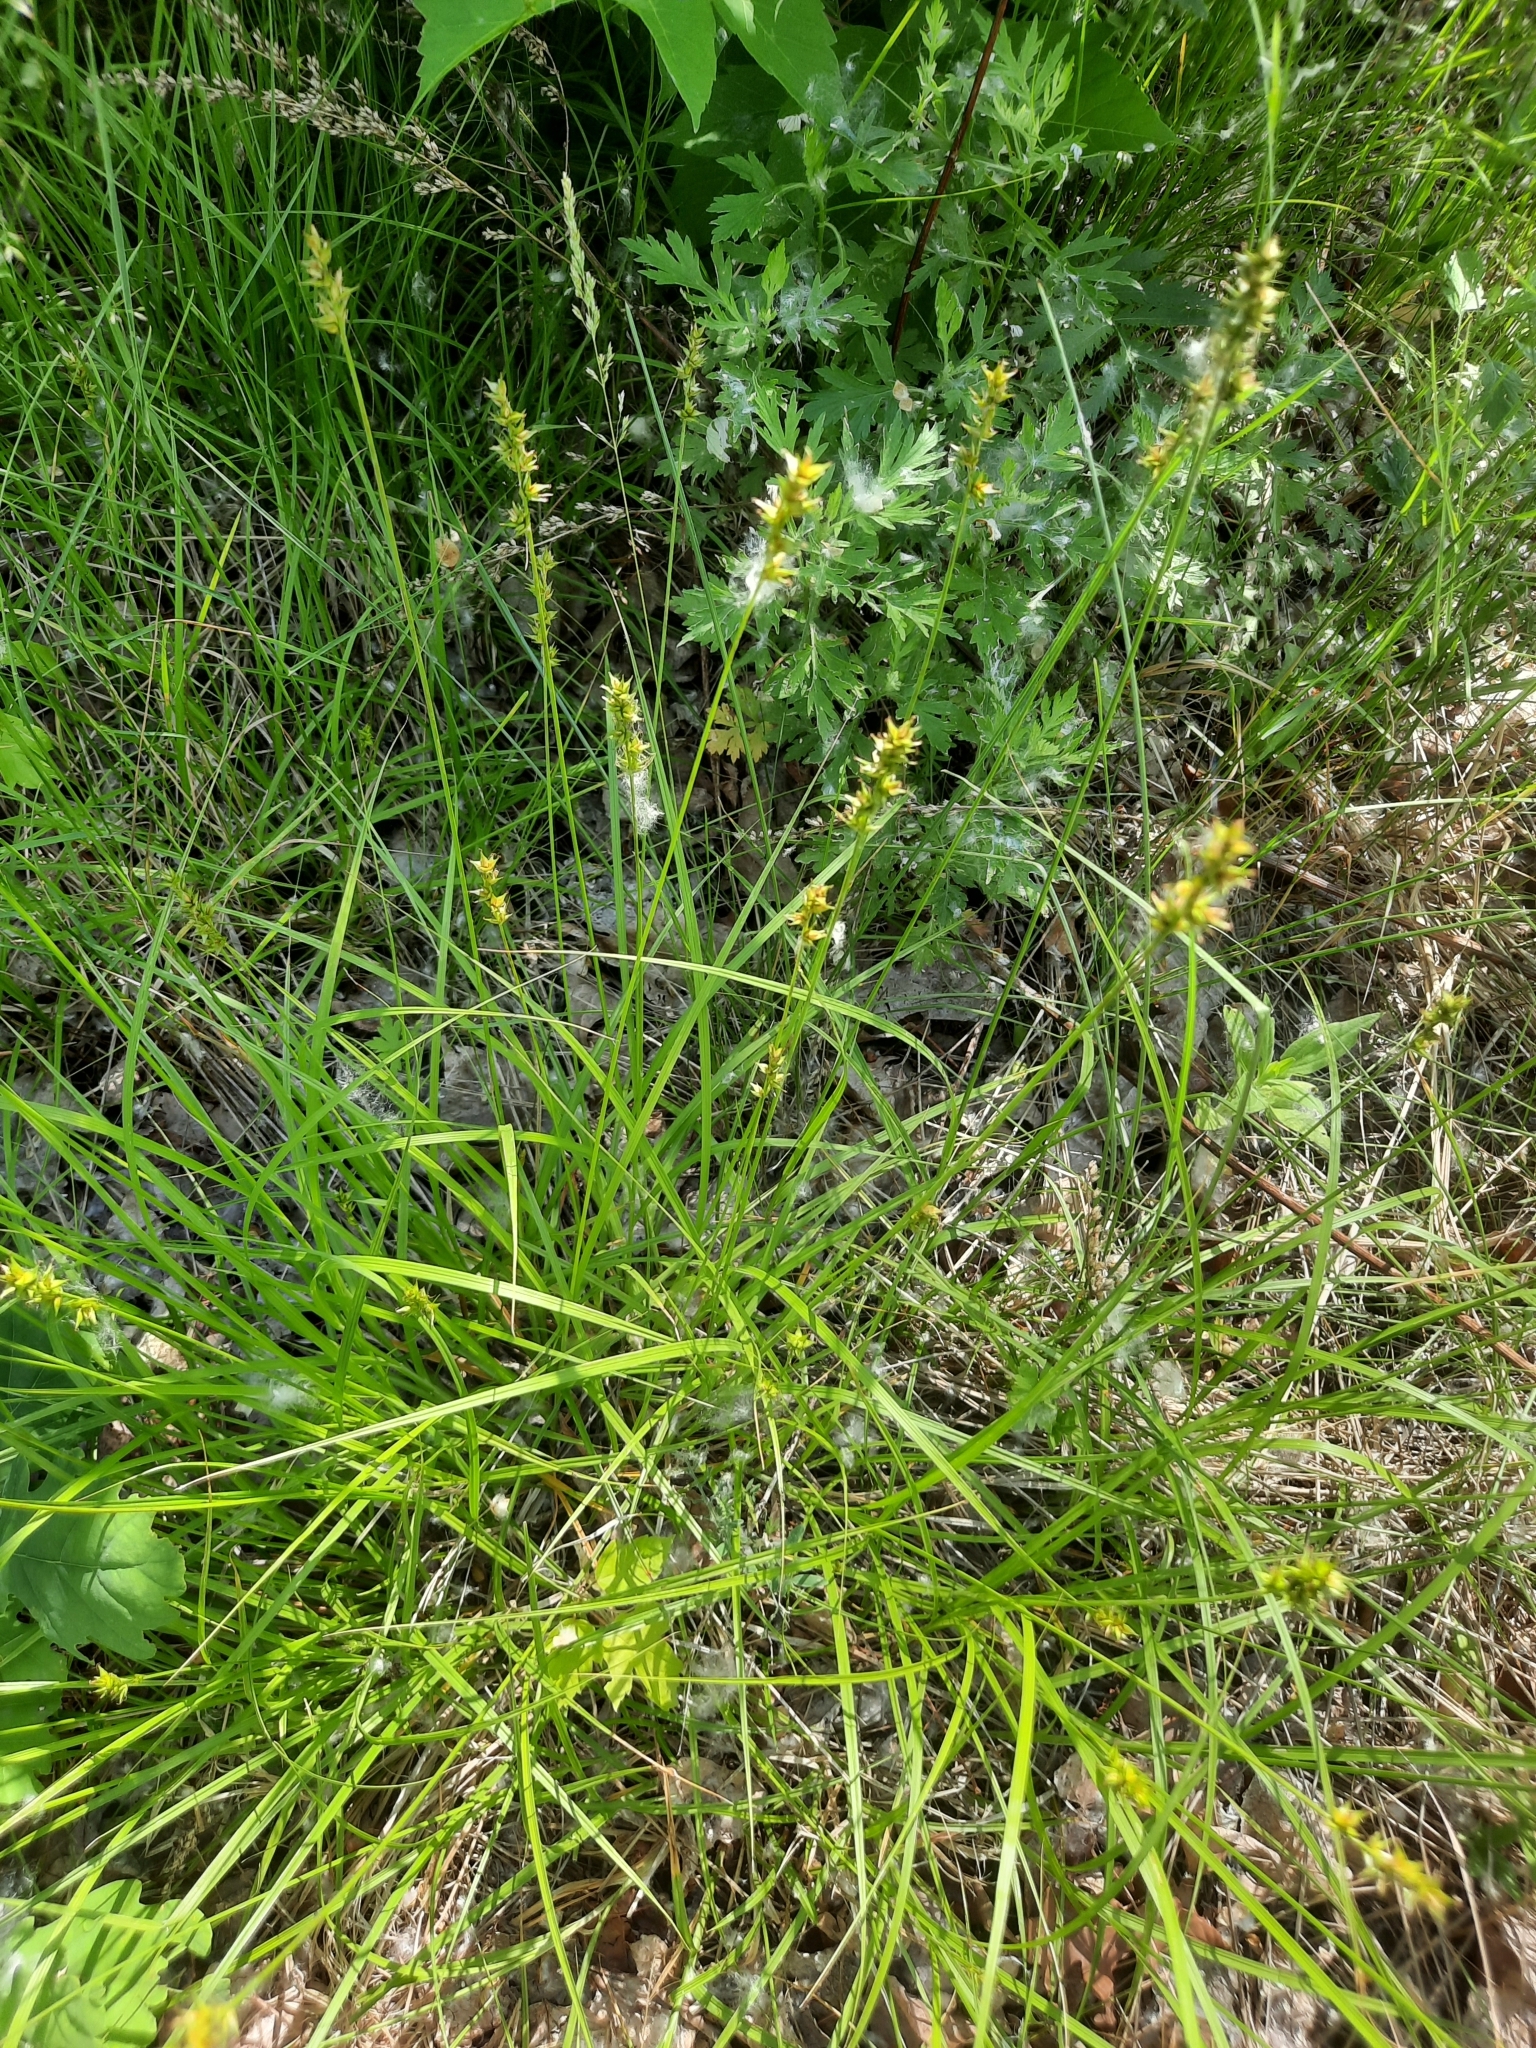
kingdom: Plantae
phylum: Tracheophyta
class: Liliopsida
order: Poales
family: Cyperaceae
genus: Carex
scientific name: Carex spicata
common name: Spiked sedge
